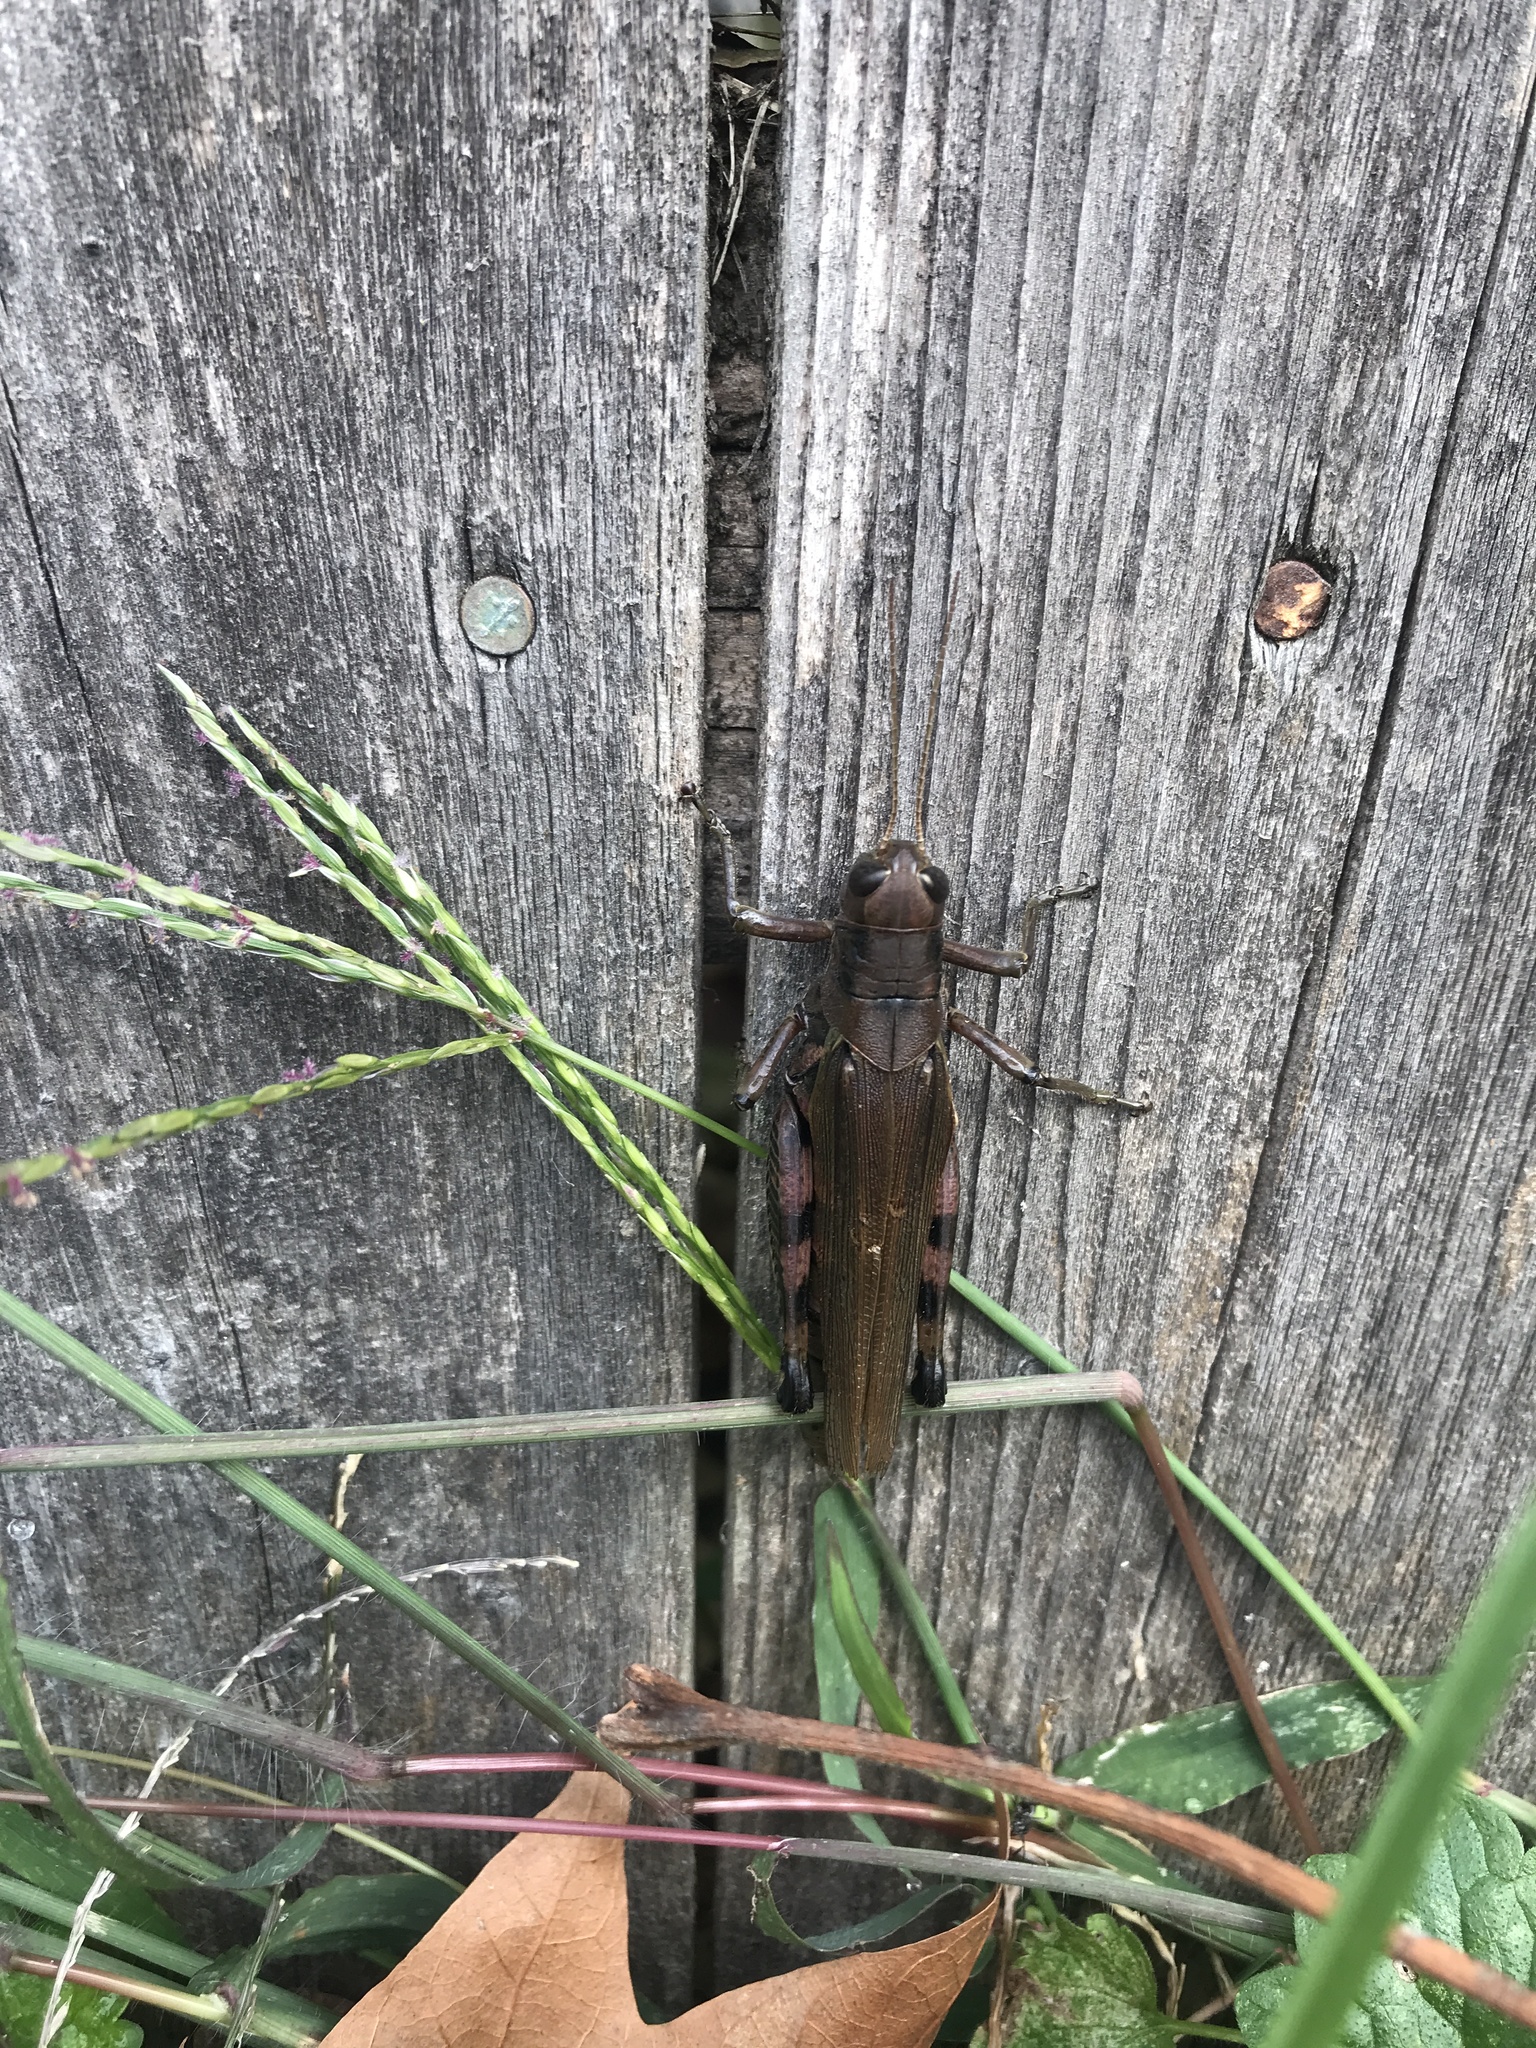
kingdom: Animalia
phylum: Arthropoda
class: Insecta
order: Orthoptera
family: Acrididae
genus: Melanoplus
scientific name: Melanoplus differentialis
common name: Differential grasshopper
